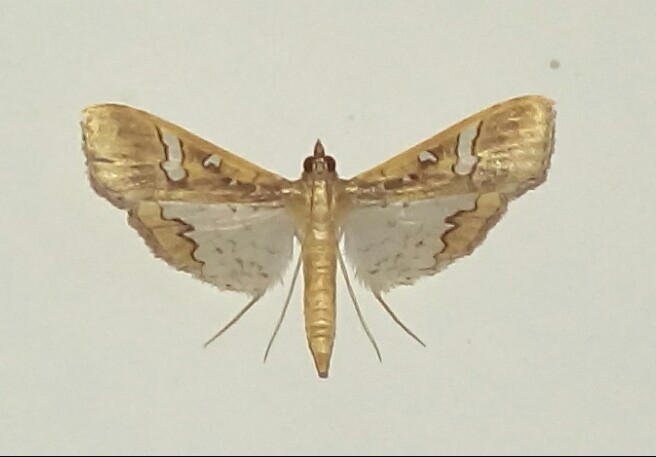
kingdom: Animalia
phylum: Arthropoda
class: Insecta
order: Lepidoptera
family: Crambidae
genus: Maruca
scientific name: Maruca vitrata
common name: Maruca pod borer
